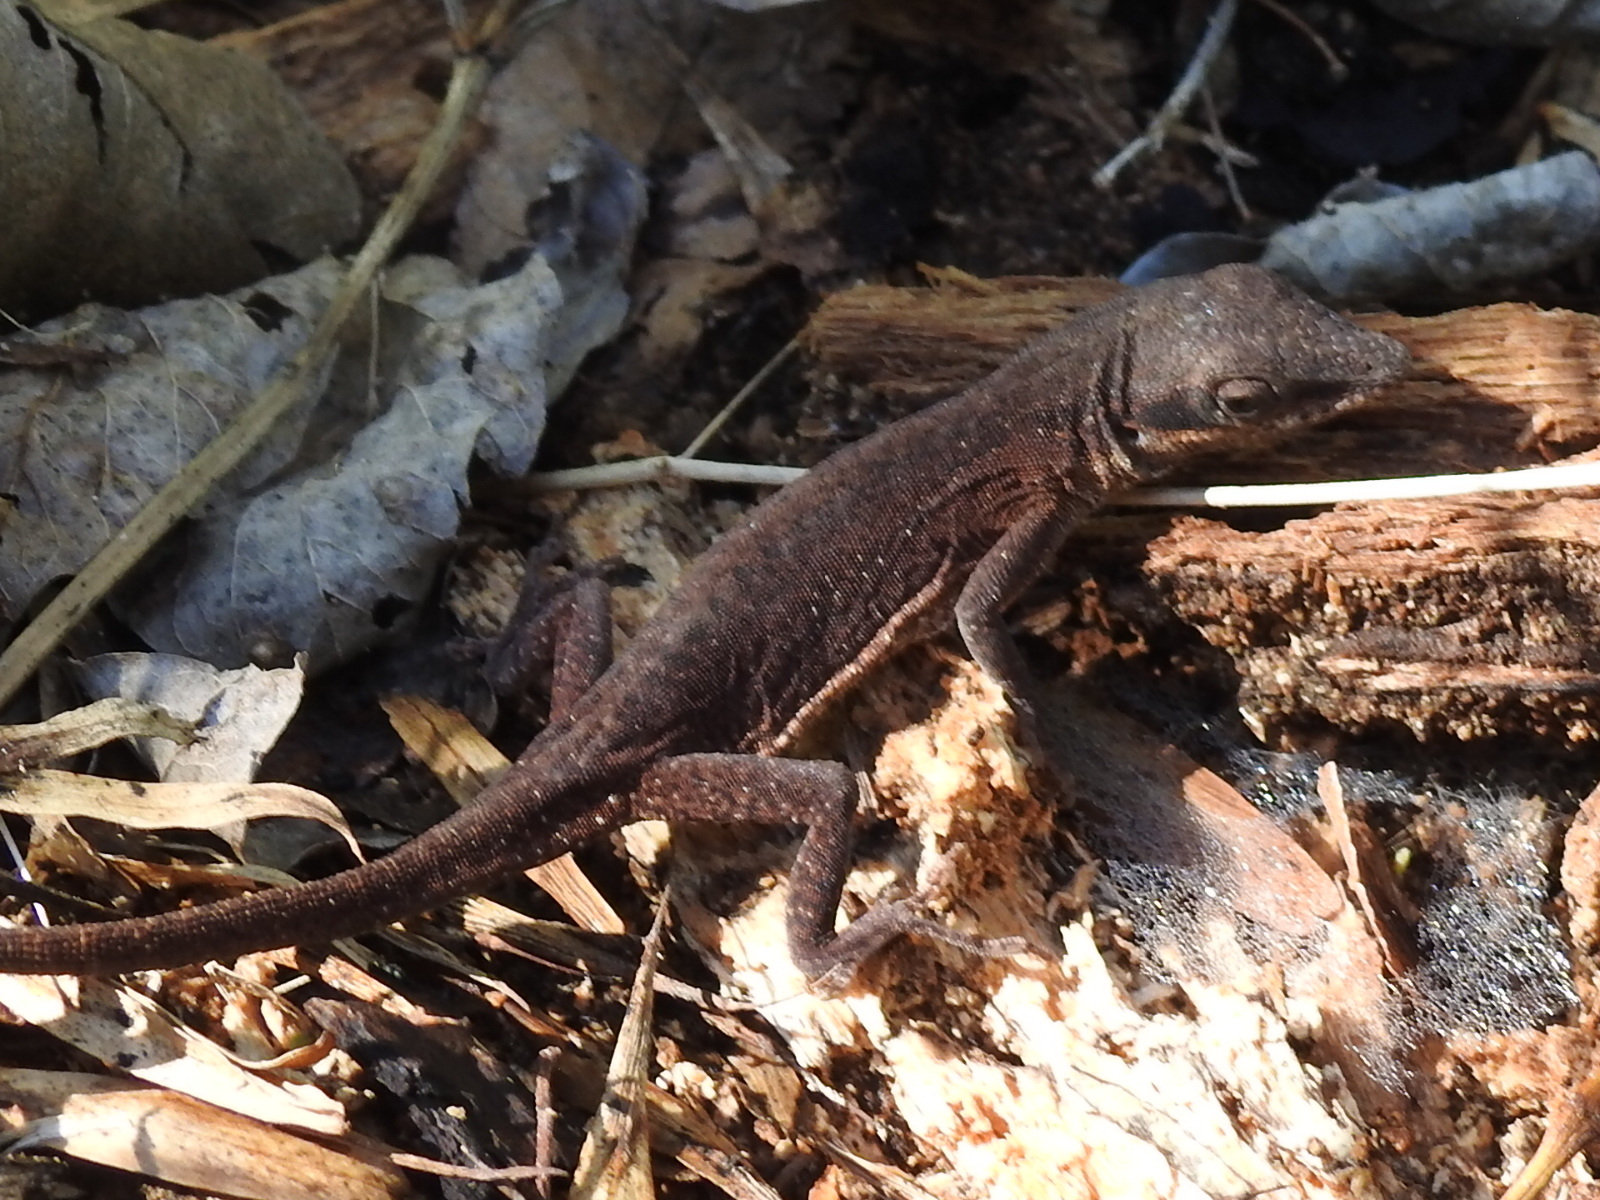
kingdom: Animalia
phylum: Chordata
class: Squamata
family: Dactyloidae
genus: Anolis
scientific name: Anolis carolinensis
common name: Green anole
